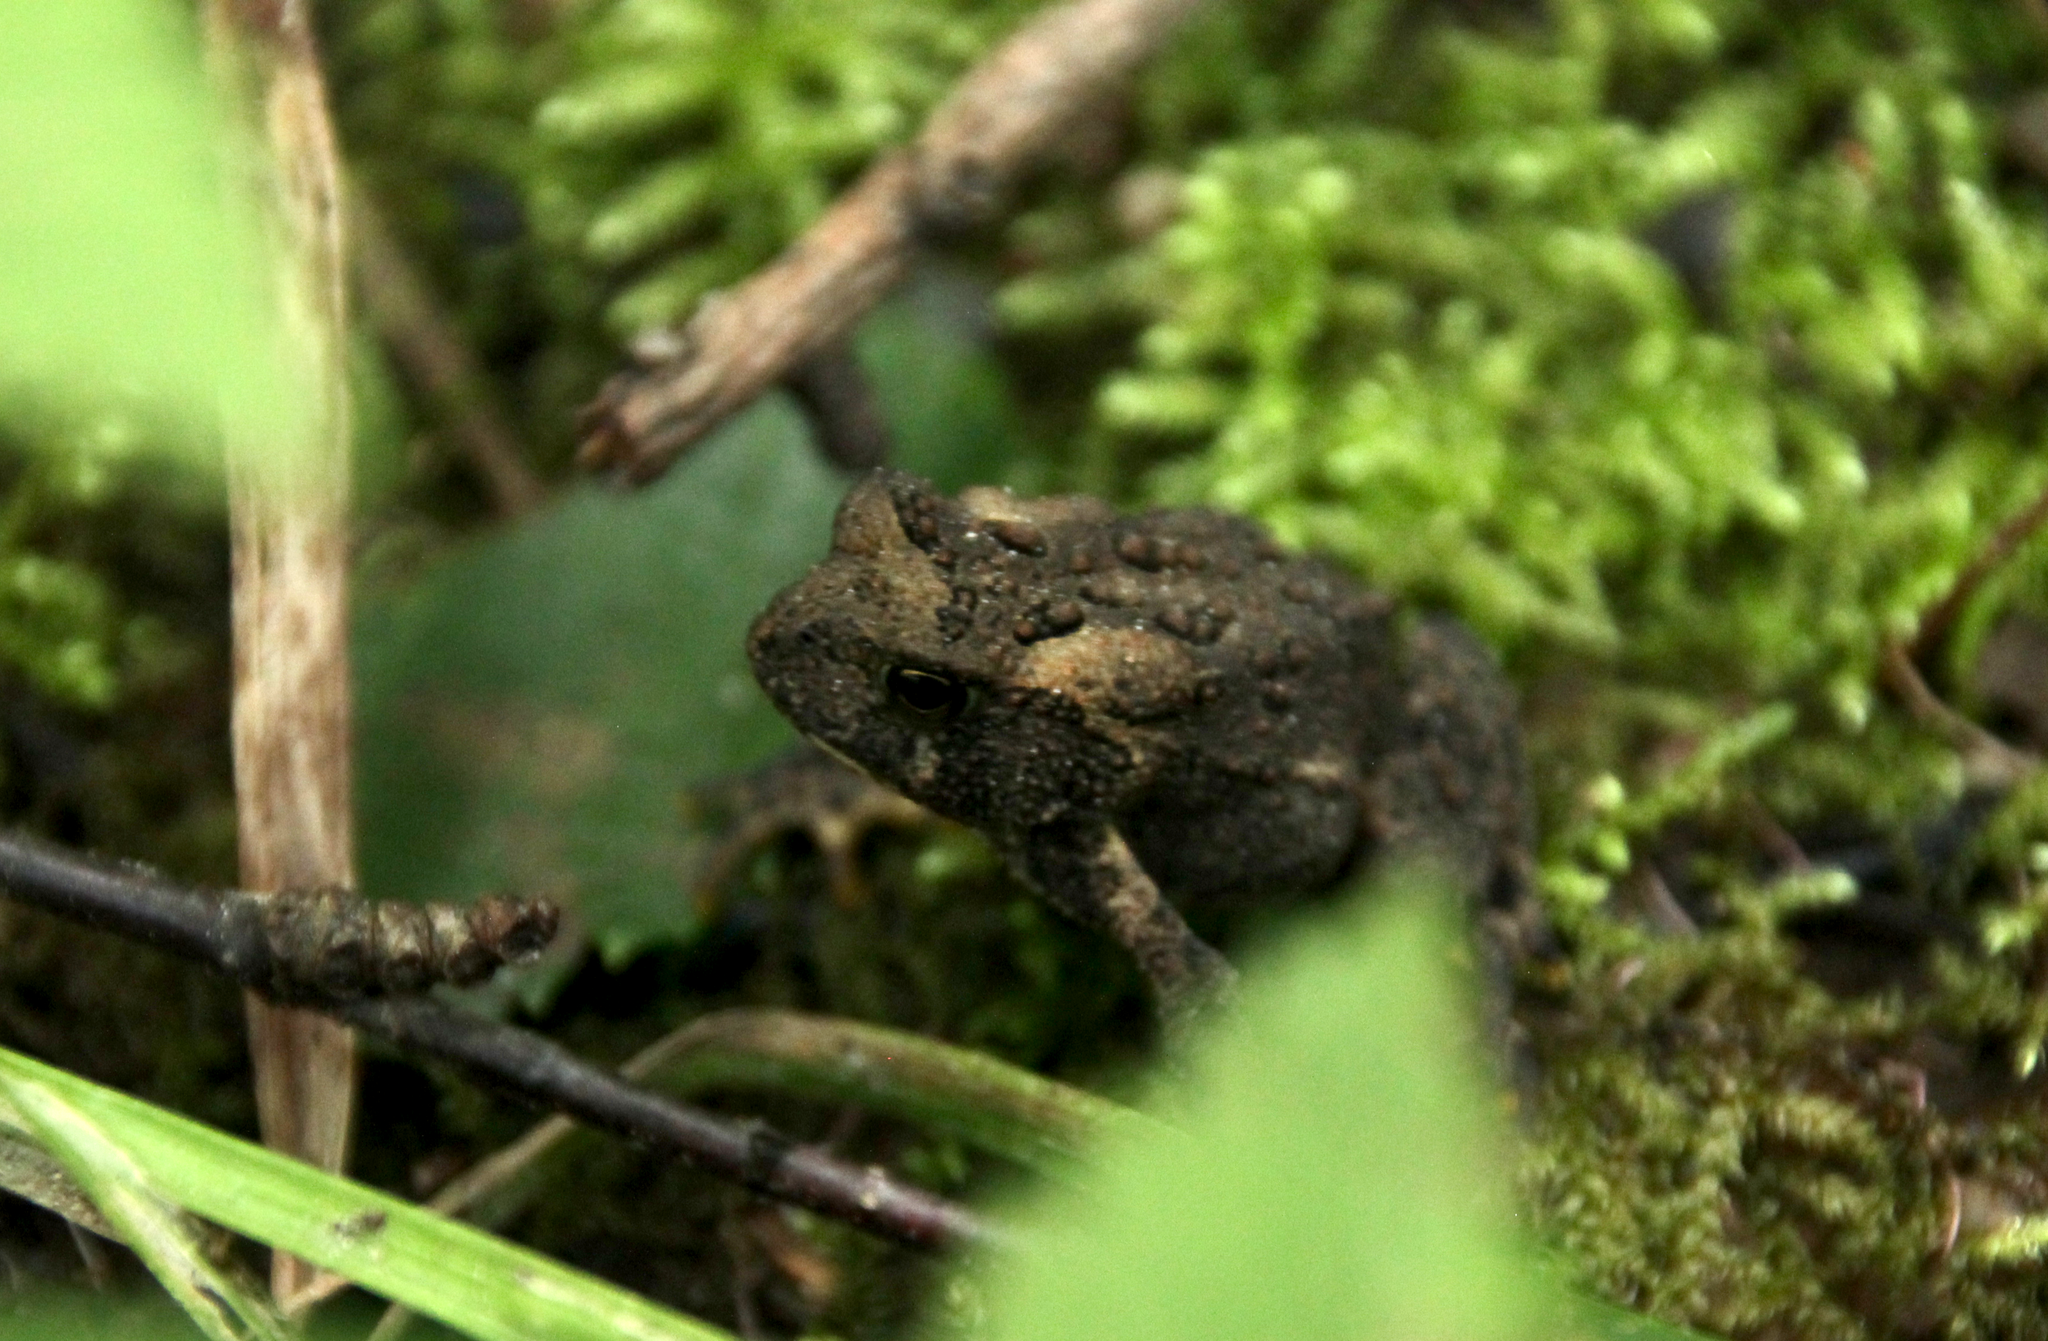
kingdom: Animalia
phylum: Chordata
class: Amphibia
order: Anura
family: Bufonidae
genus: Anaxyrus
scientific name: Anaxyrus americanus
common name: American toad
